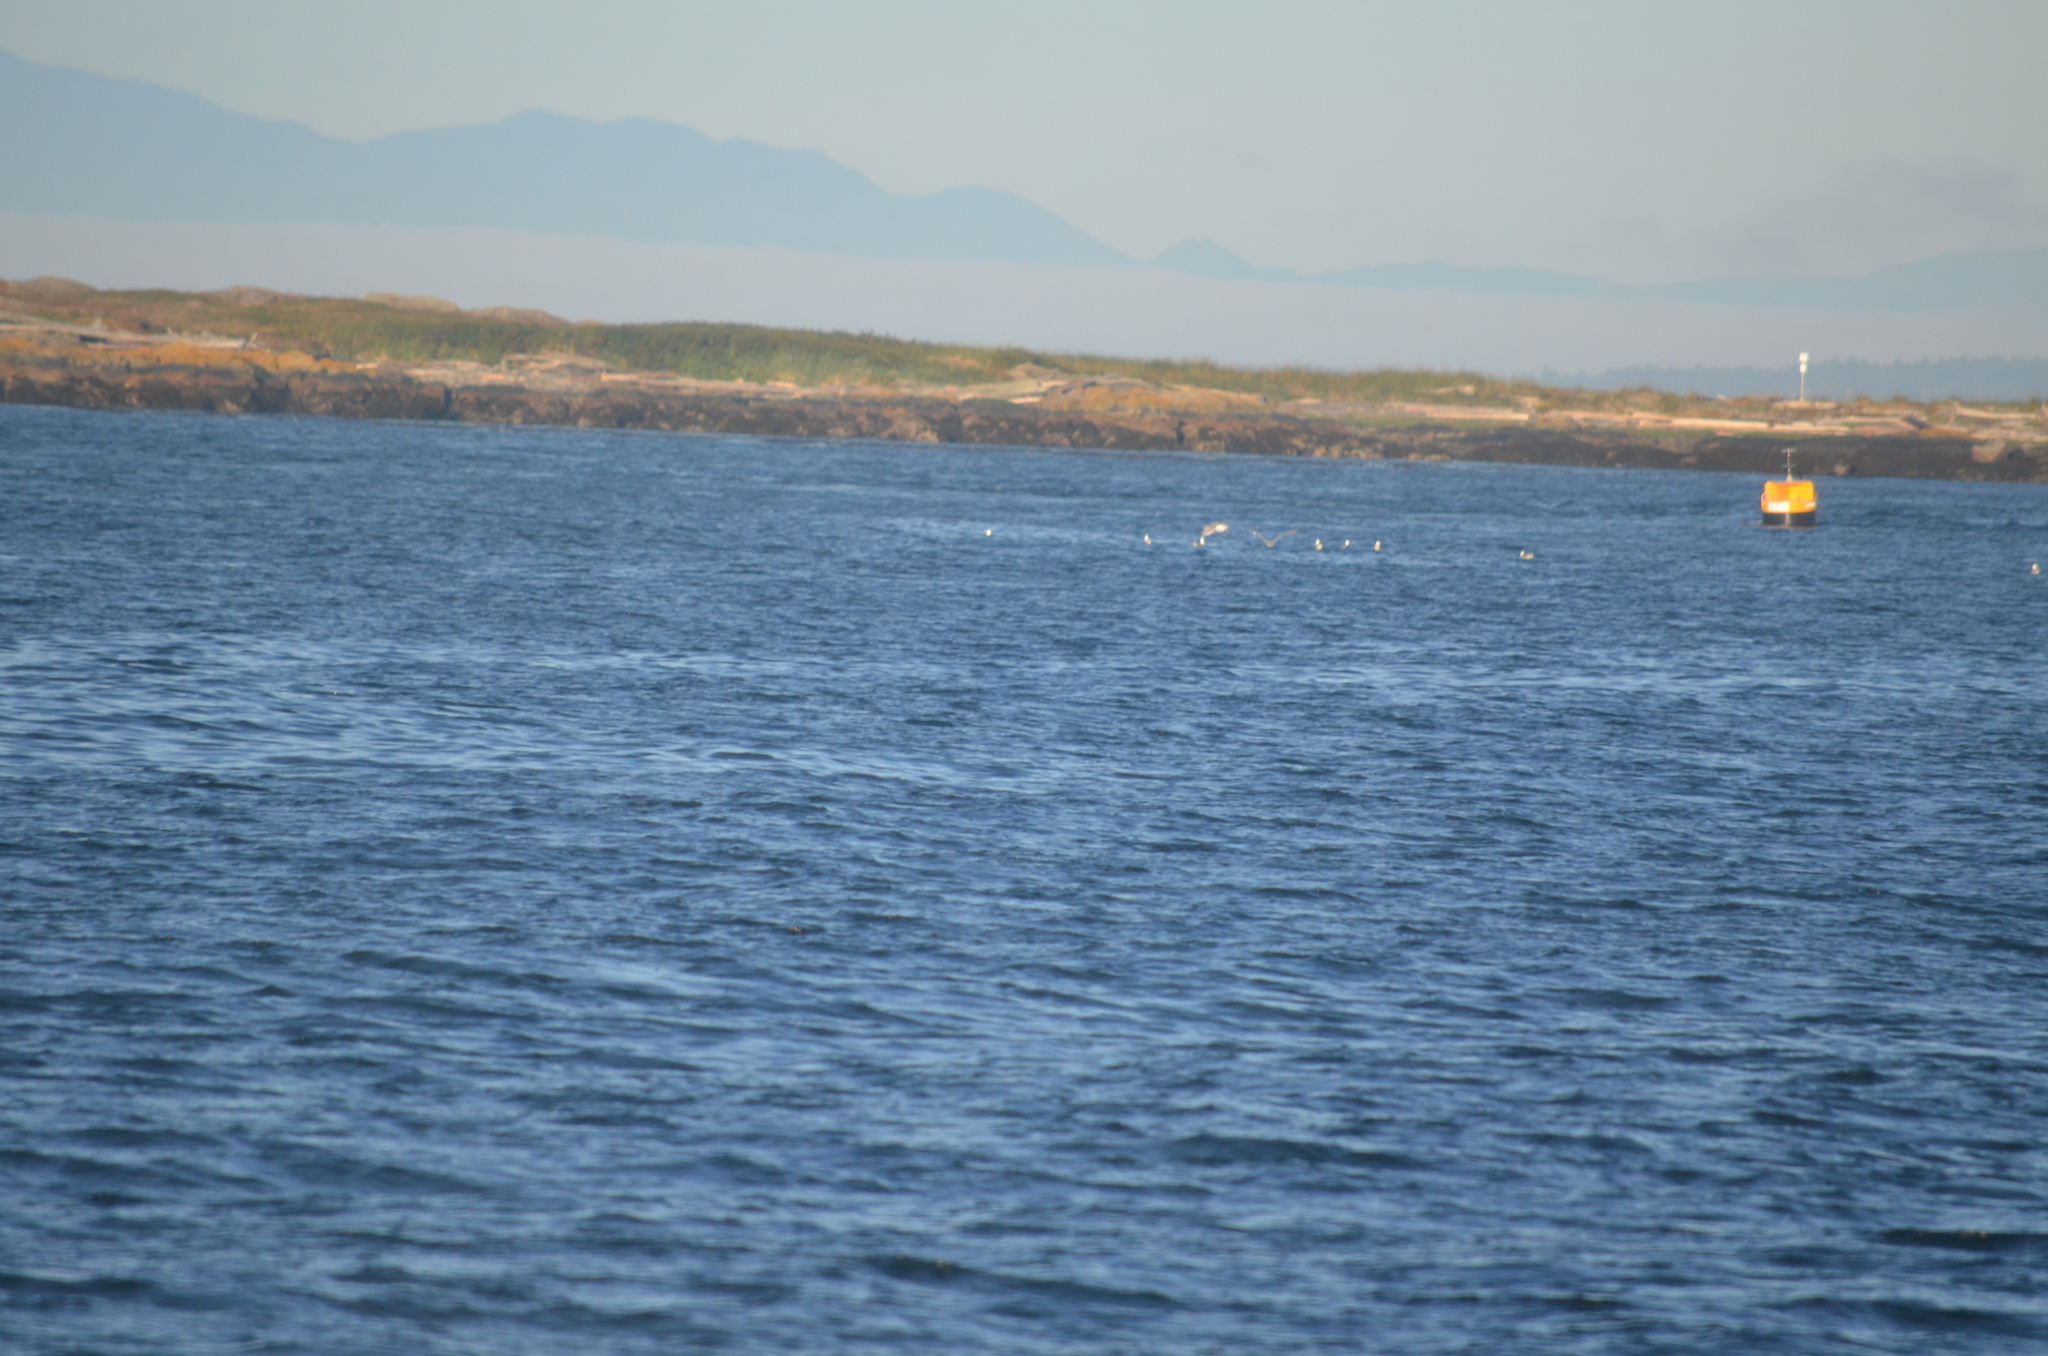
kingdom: Animalia
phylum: Chordata
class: Aves
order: Charadriiformes
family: Laridae
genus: Larus
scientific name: Larus glaucescens
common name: Glaucous-winged gull
